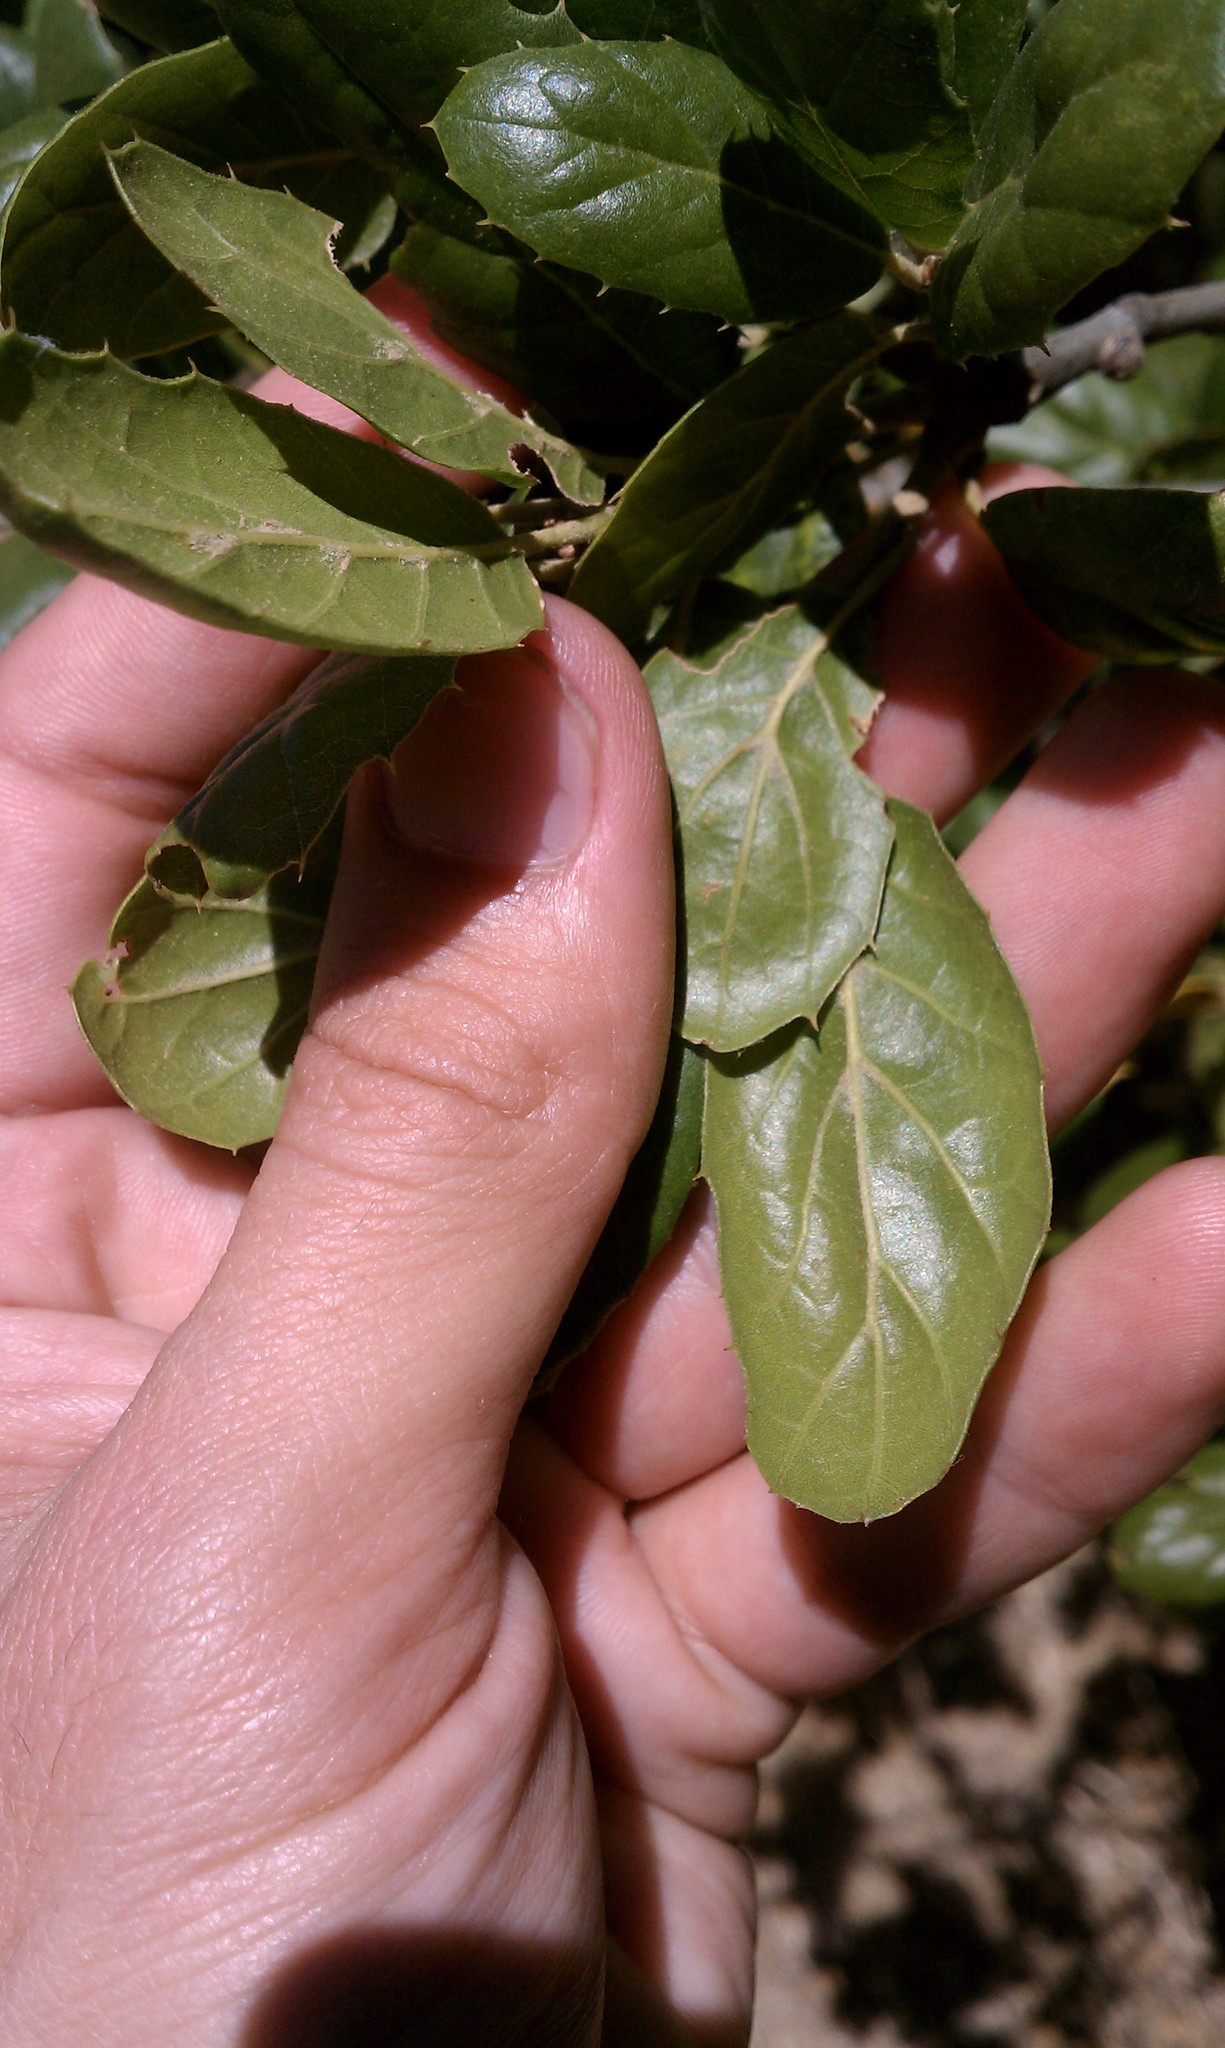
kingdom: Plantae
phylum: Tracheophyta
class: Magnoliopsida
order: Fagales
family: Fagaceae
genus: Quercus
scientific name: Quercus agrifolia
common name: California live oak
